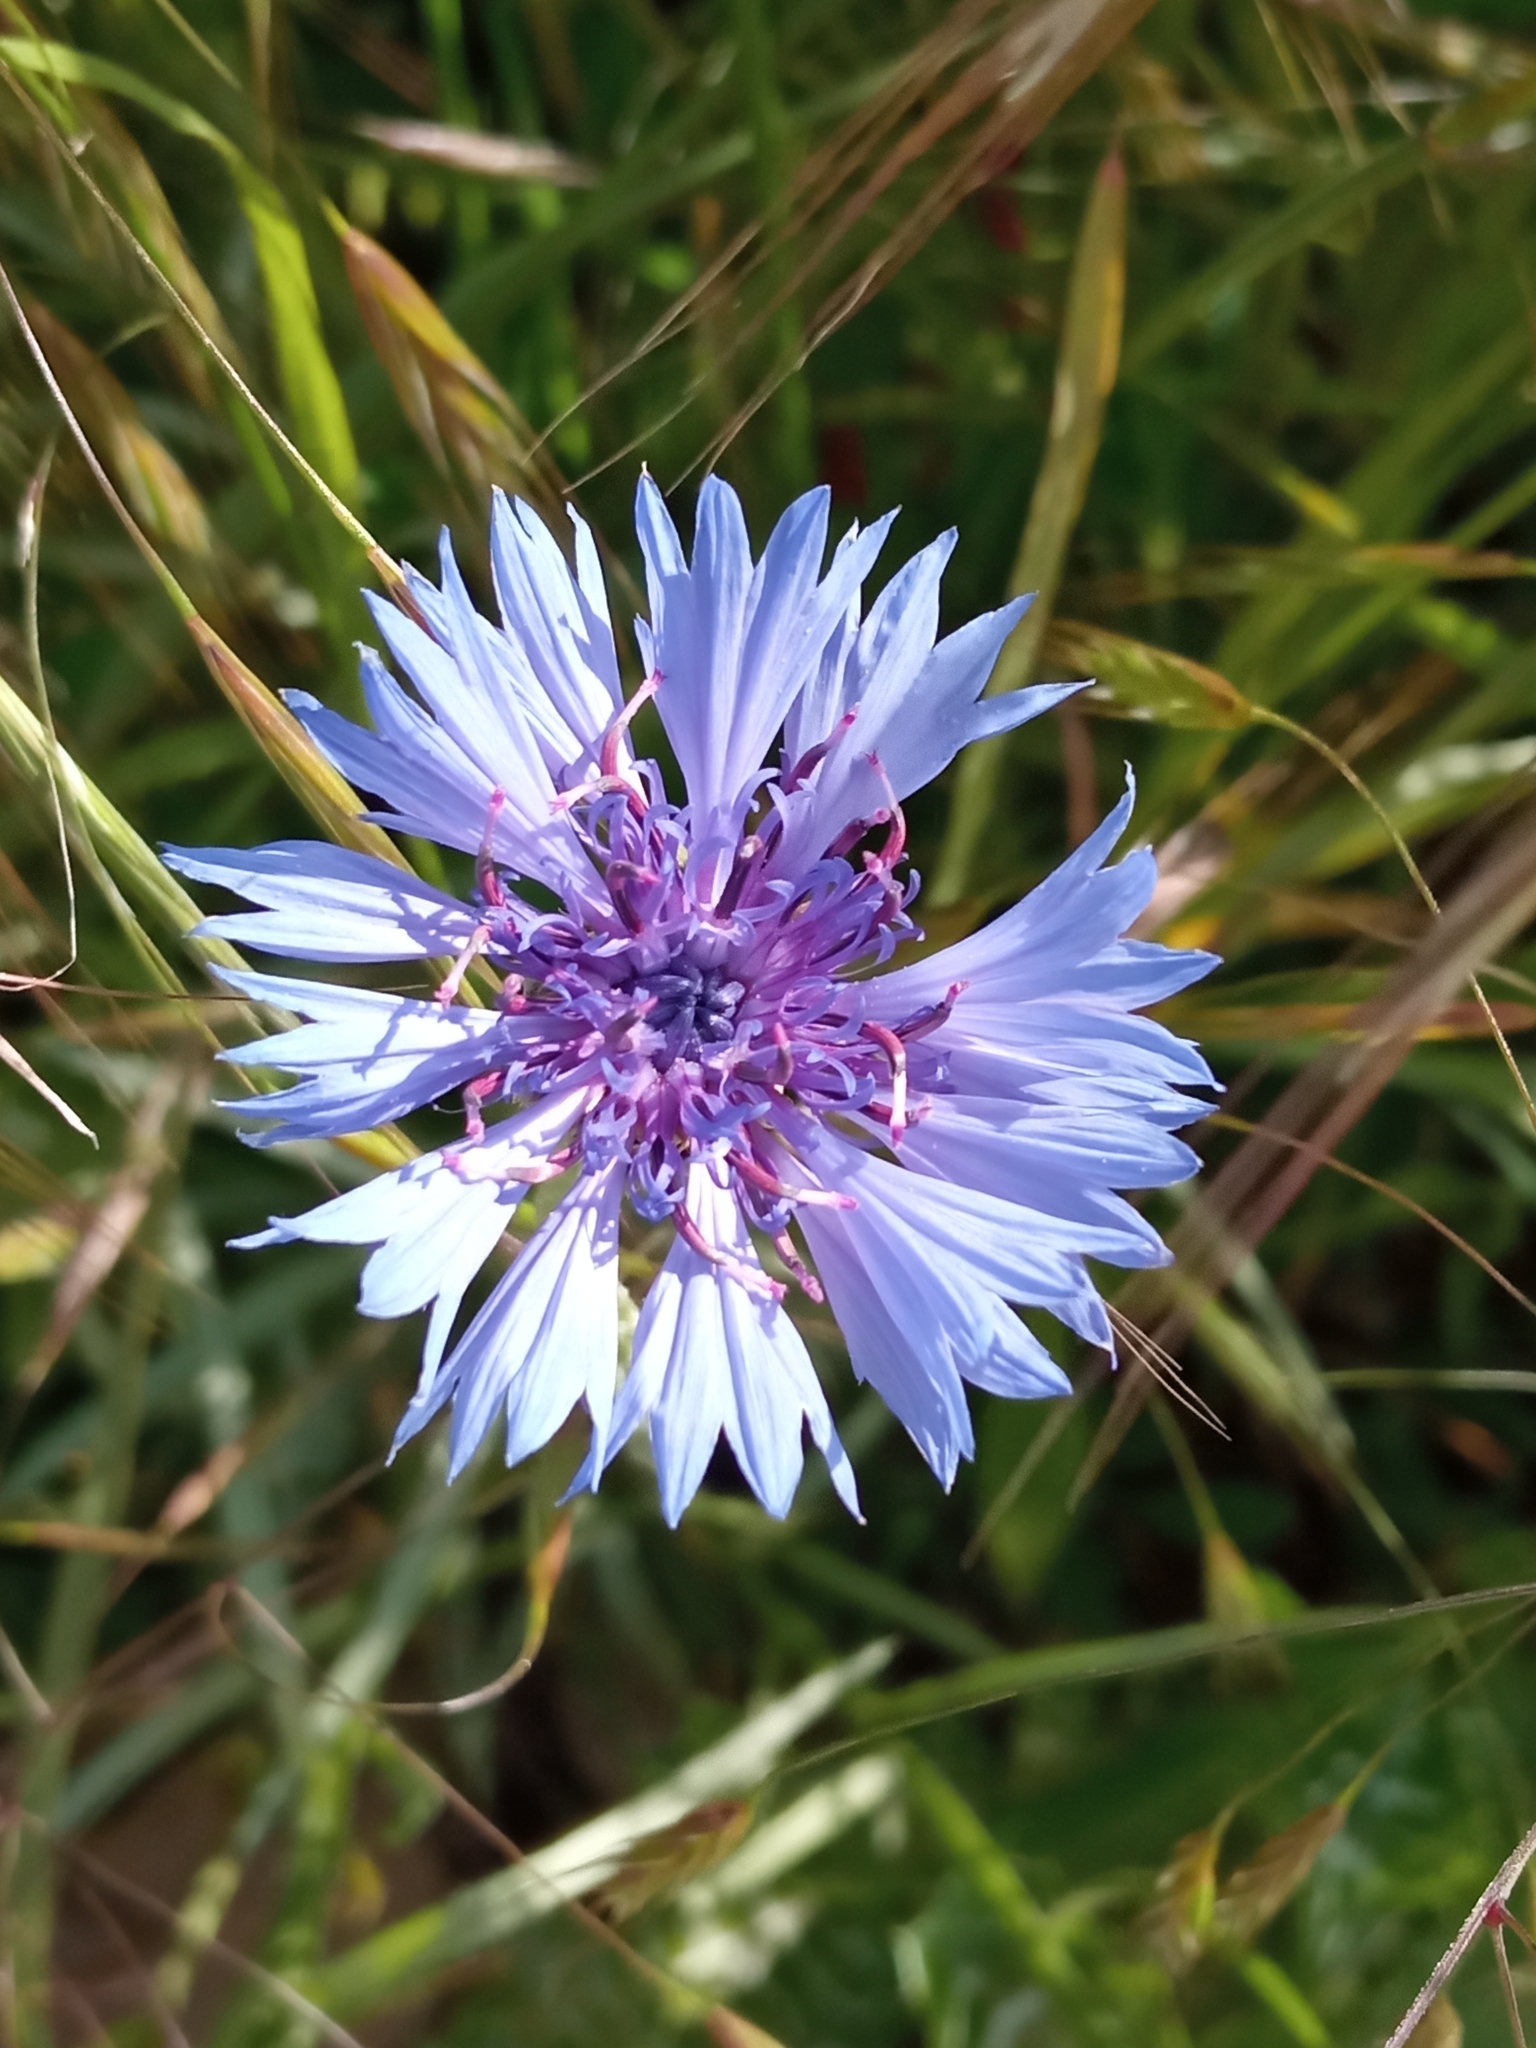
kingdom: Plantae
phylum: Tracheophyta
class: Magnoliopsida
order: Asterales
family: Asteraceae
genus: Centaurea
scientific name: Centaurea cyanus
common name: Cornflower
